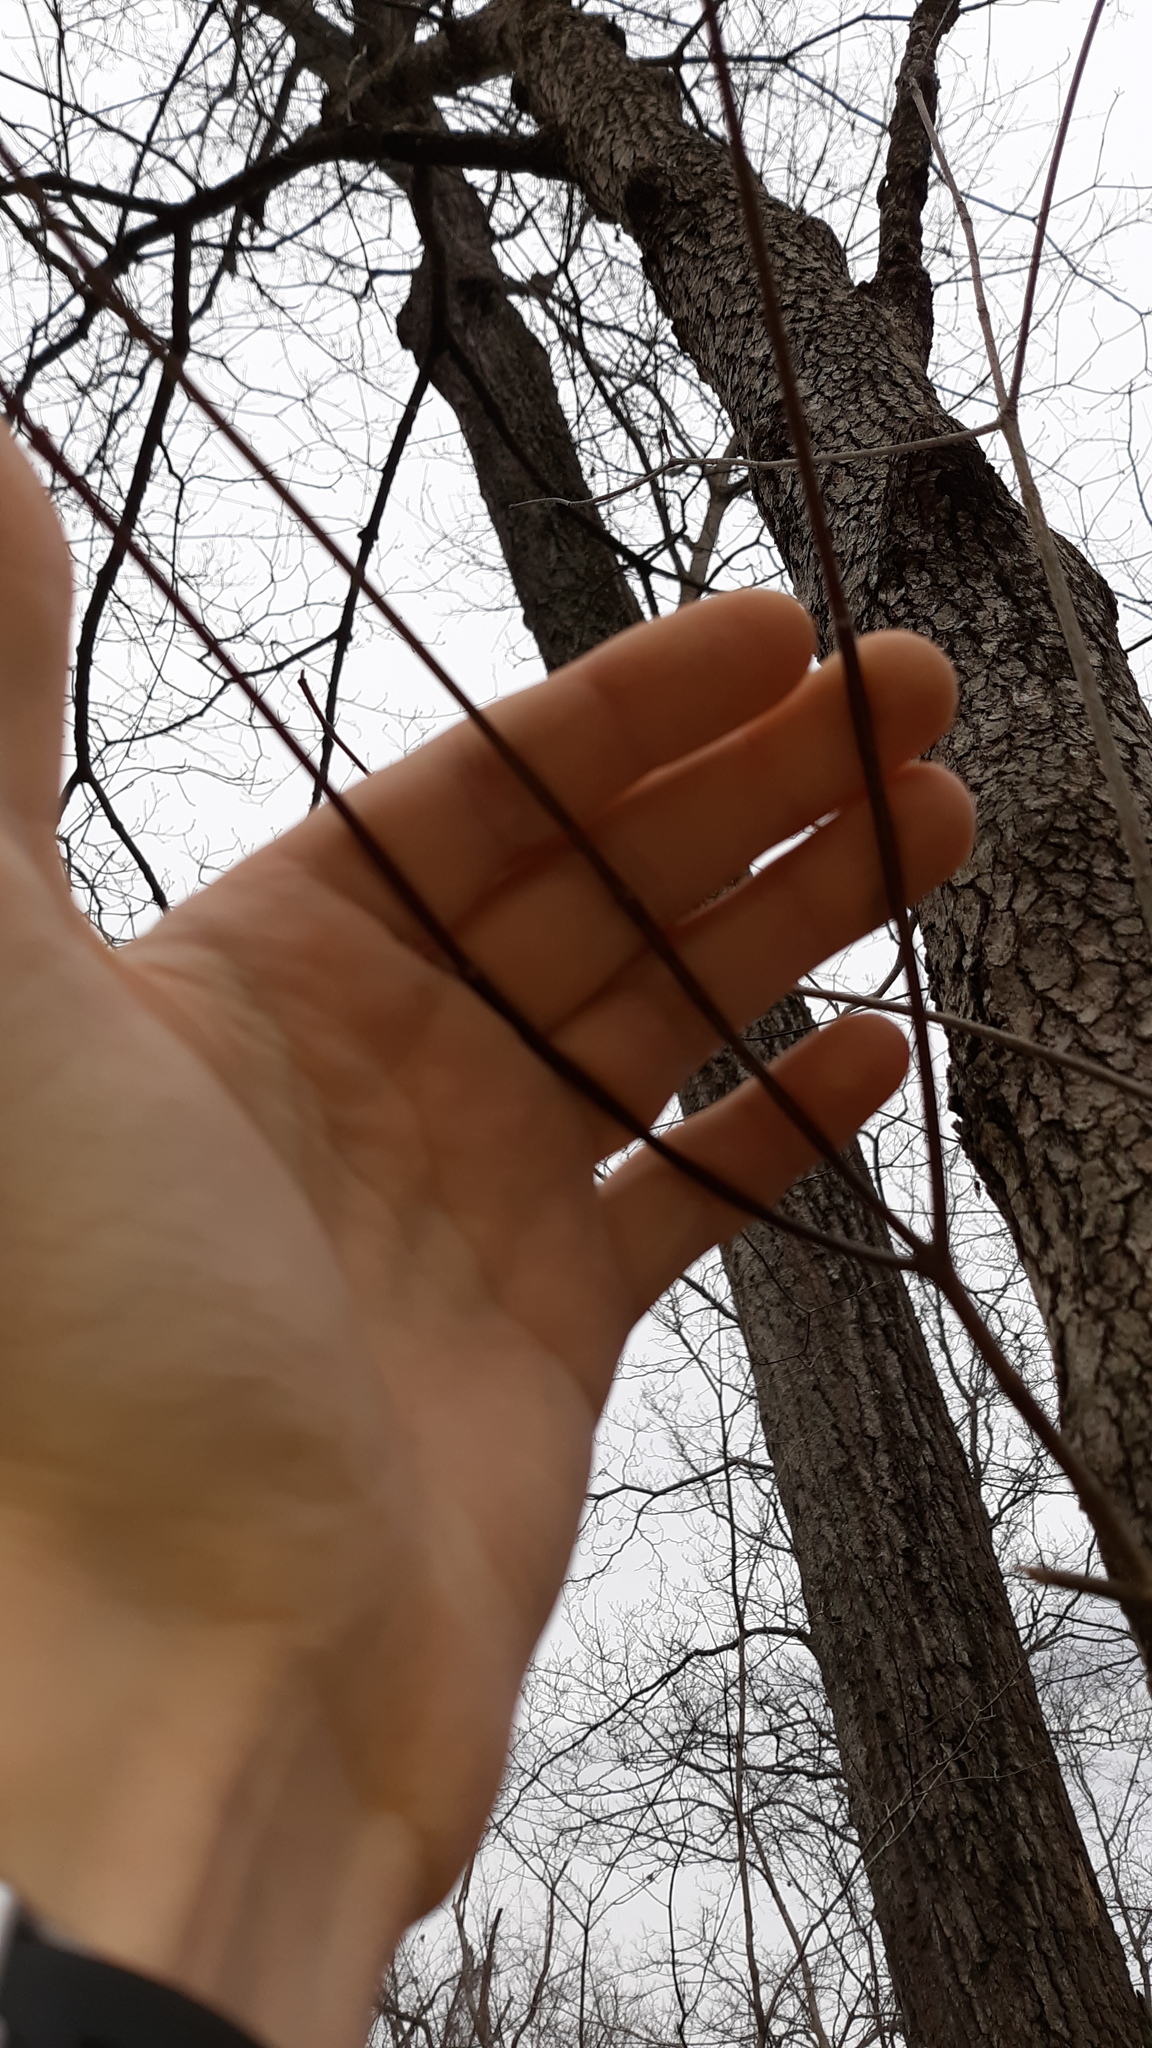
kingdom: Plantae
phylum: Tracheophyta
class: Magnoliopsida
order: Cornales
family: Cornaceae
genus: Cornus
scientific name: Cornus florida
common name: Flowering dogwood
